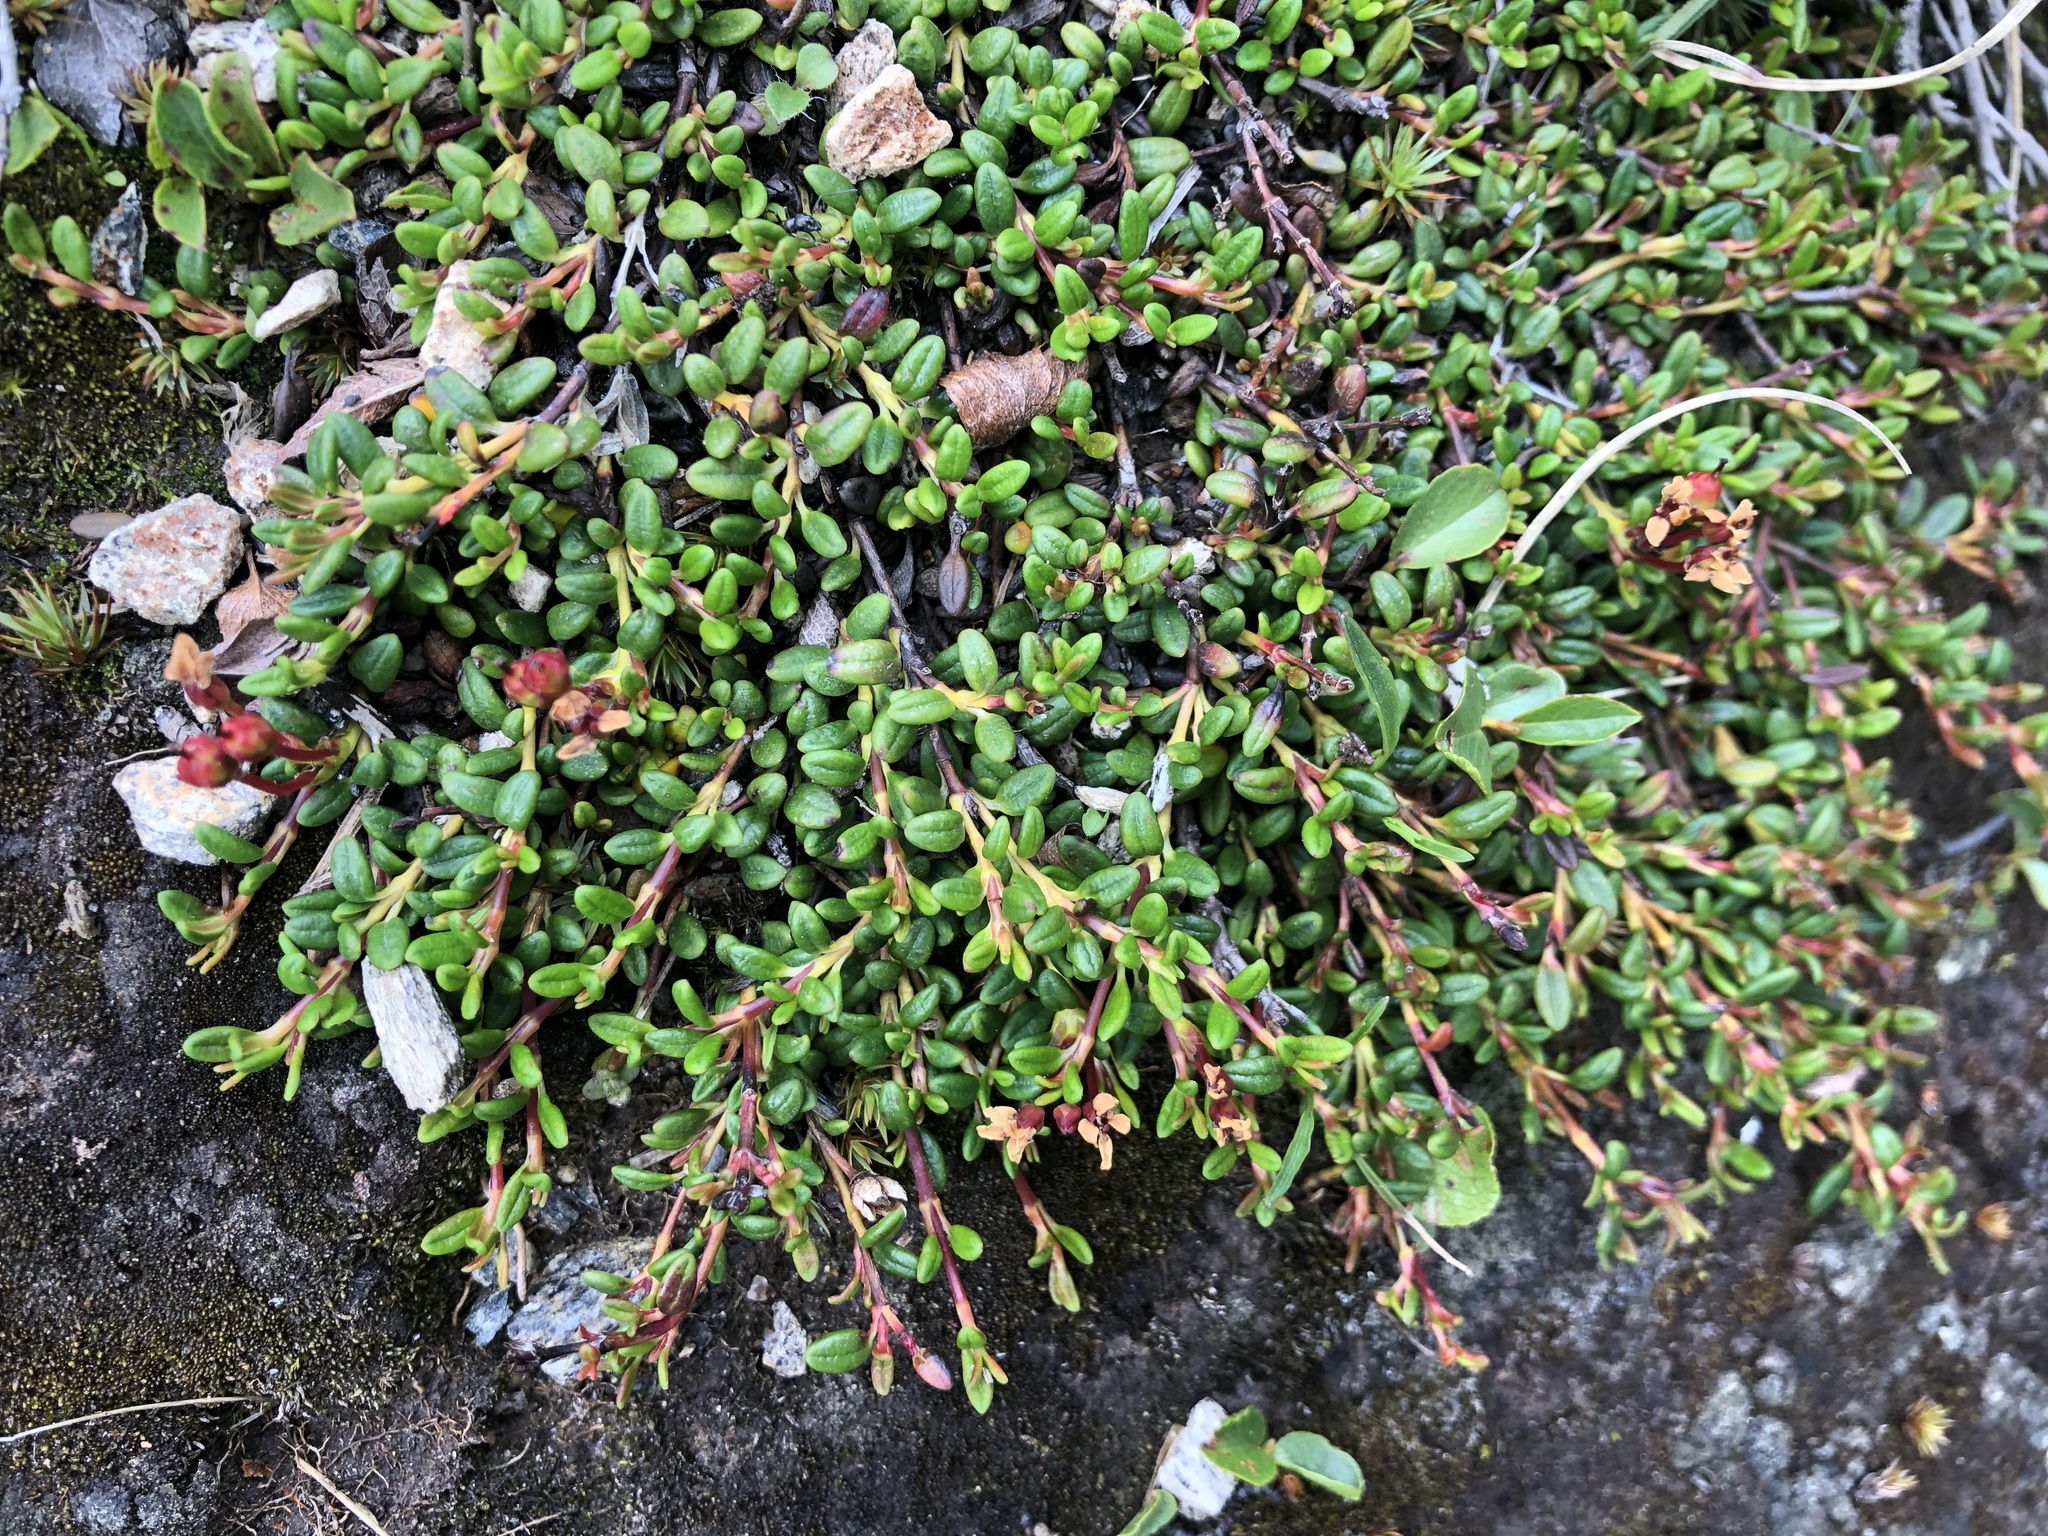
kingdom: Plantae
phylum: Tracheophyta
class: Magnoliopsida
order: Ericales
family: Ericaceae
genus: Kalmia
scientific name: Kalmia procumbens
